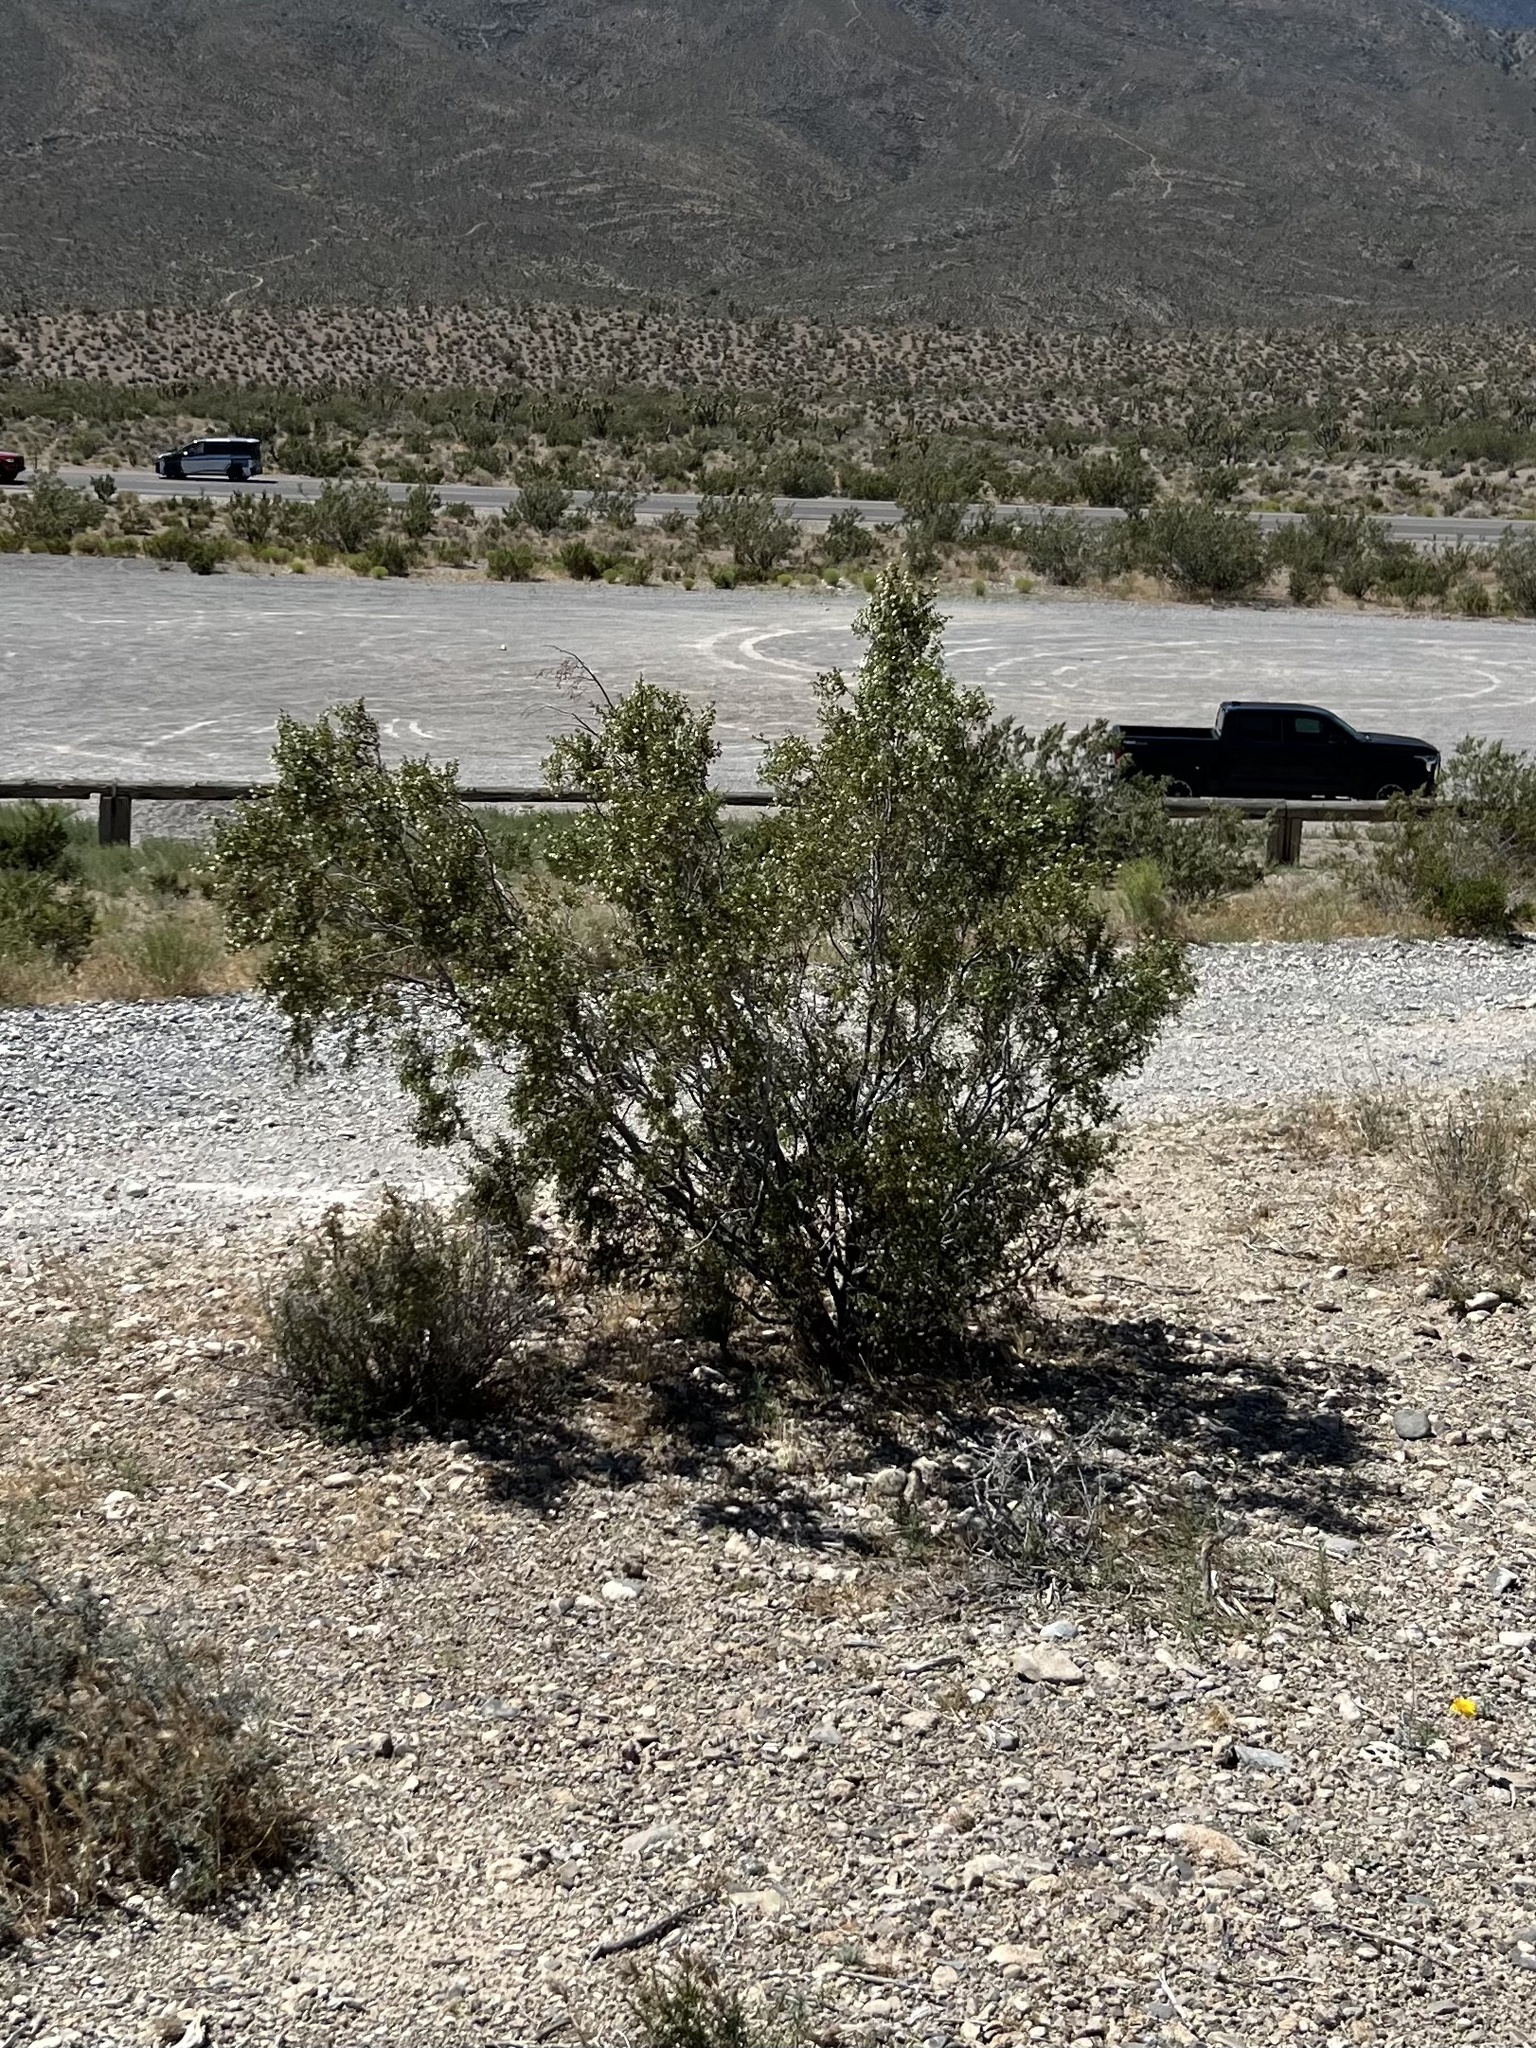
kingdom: Plantae
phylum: Tracheophyta
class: Magnoliopsida
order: Zygophyllales
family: Zygophyllaceae
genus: Larrea
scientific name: Larrea tridentata
